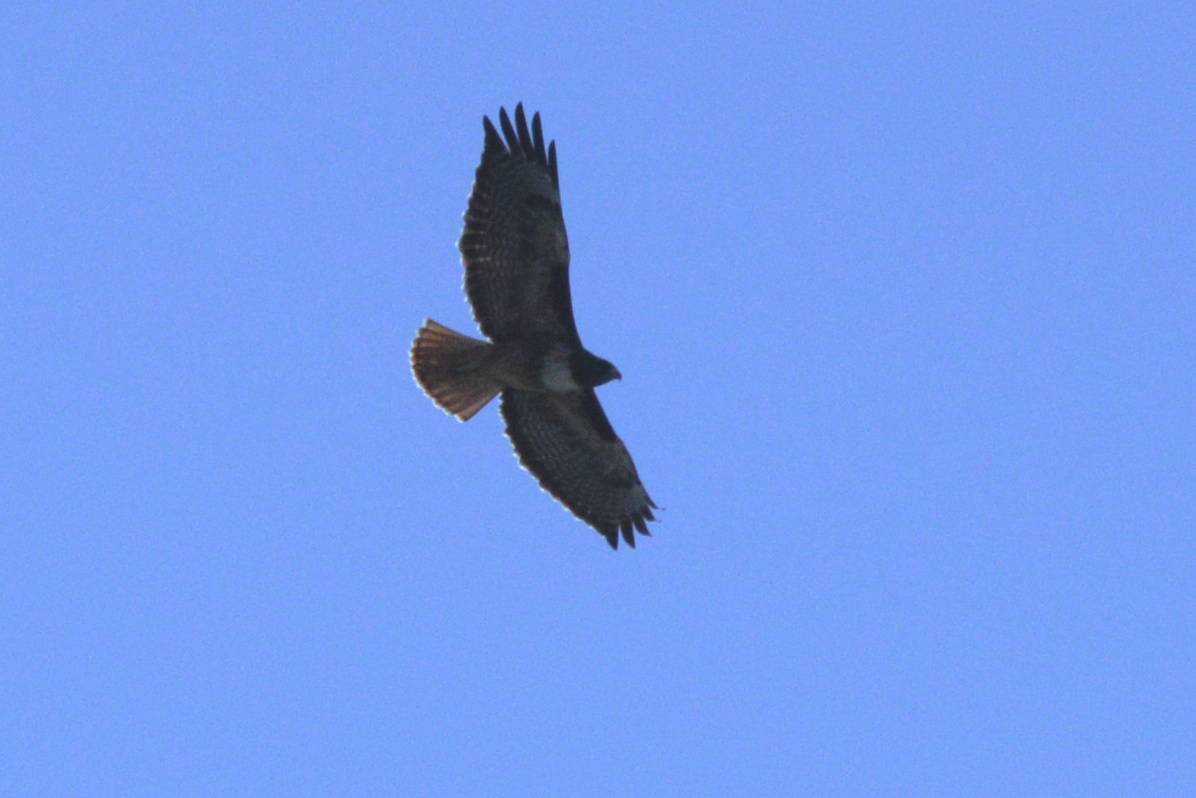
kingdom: Animalia
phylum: Chordata
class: Aves
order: Accipitriformes
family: Accipitridae
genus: Buteo
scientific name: Buteo jamaicensis
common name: Red-tailed hawk
